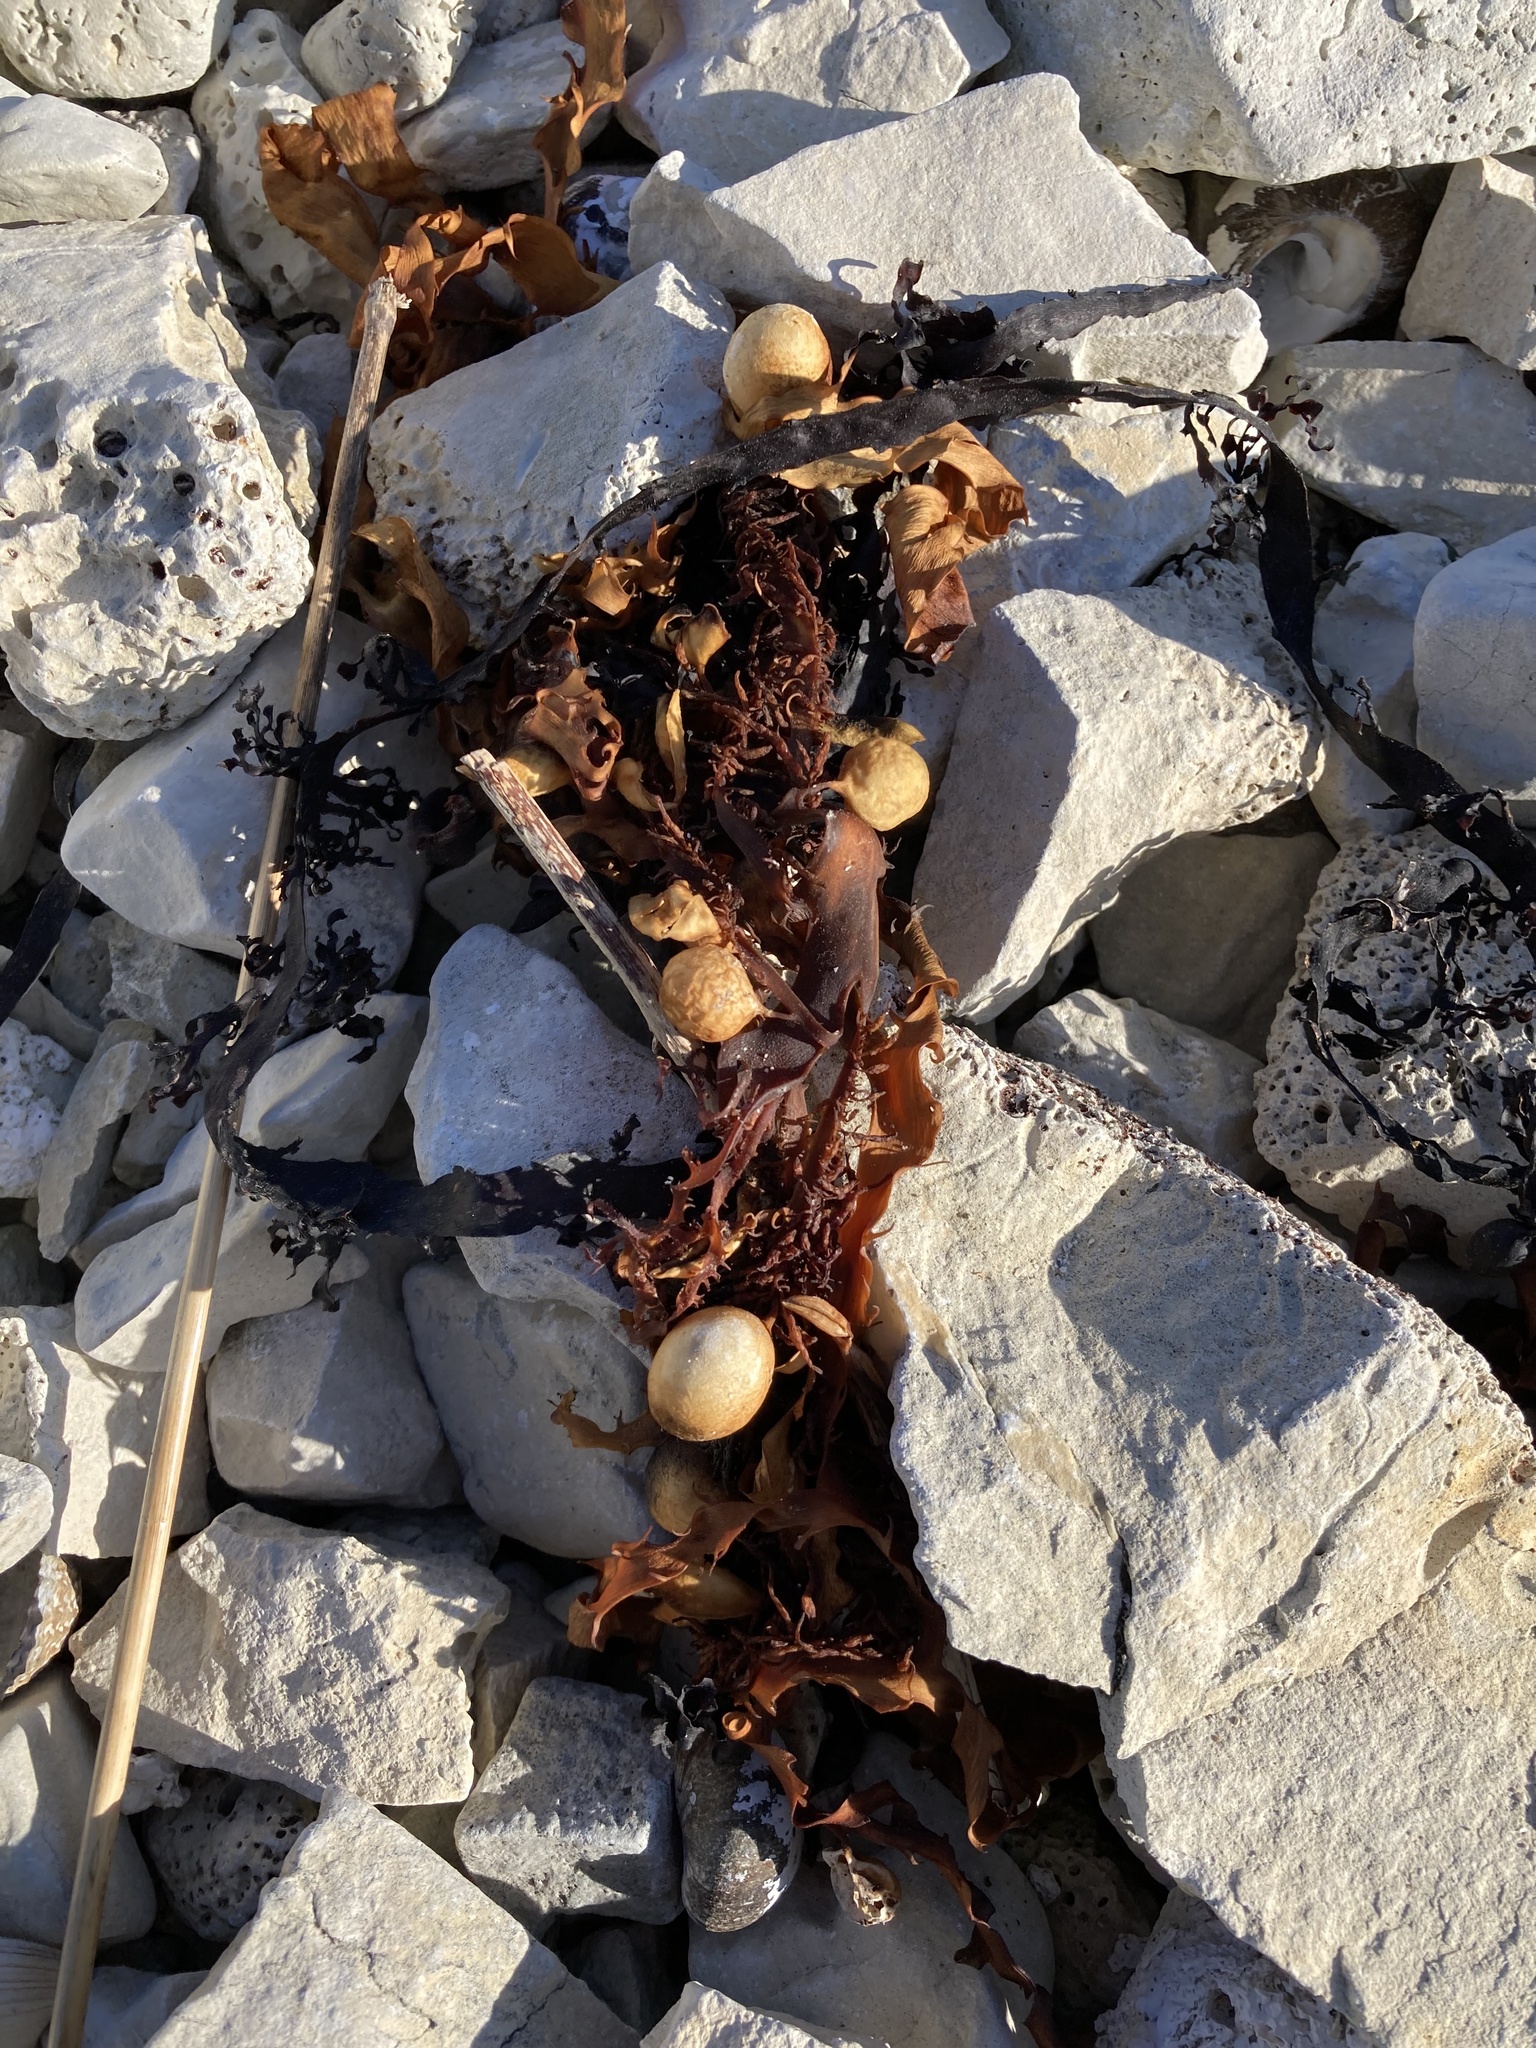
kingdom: Chromista
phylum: Ochrophyta
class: Phaeophyceae
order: Fucales
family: Seirococcaceae
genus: Marginariella
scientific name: Marginariella urvilliana
